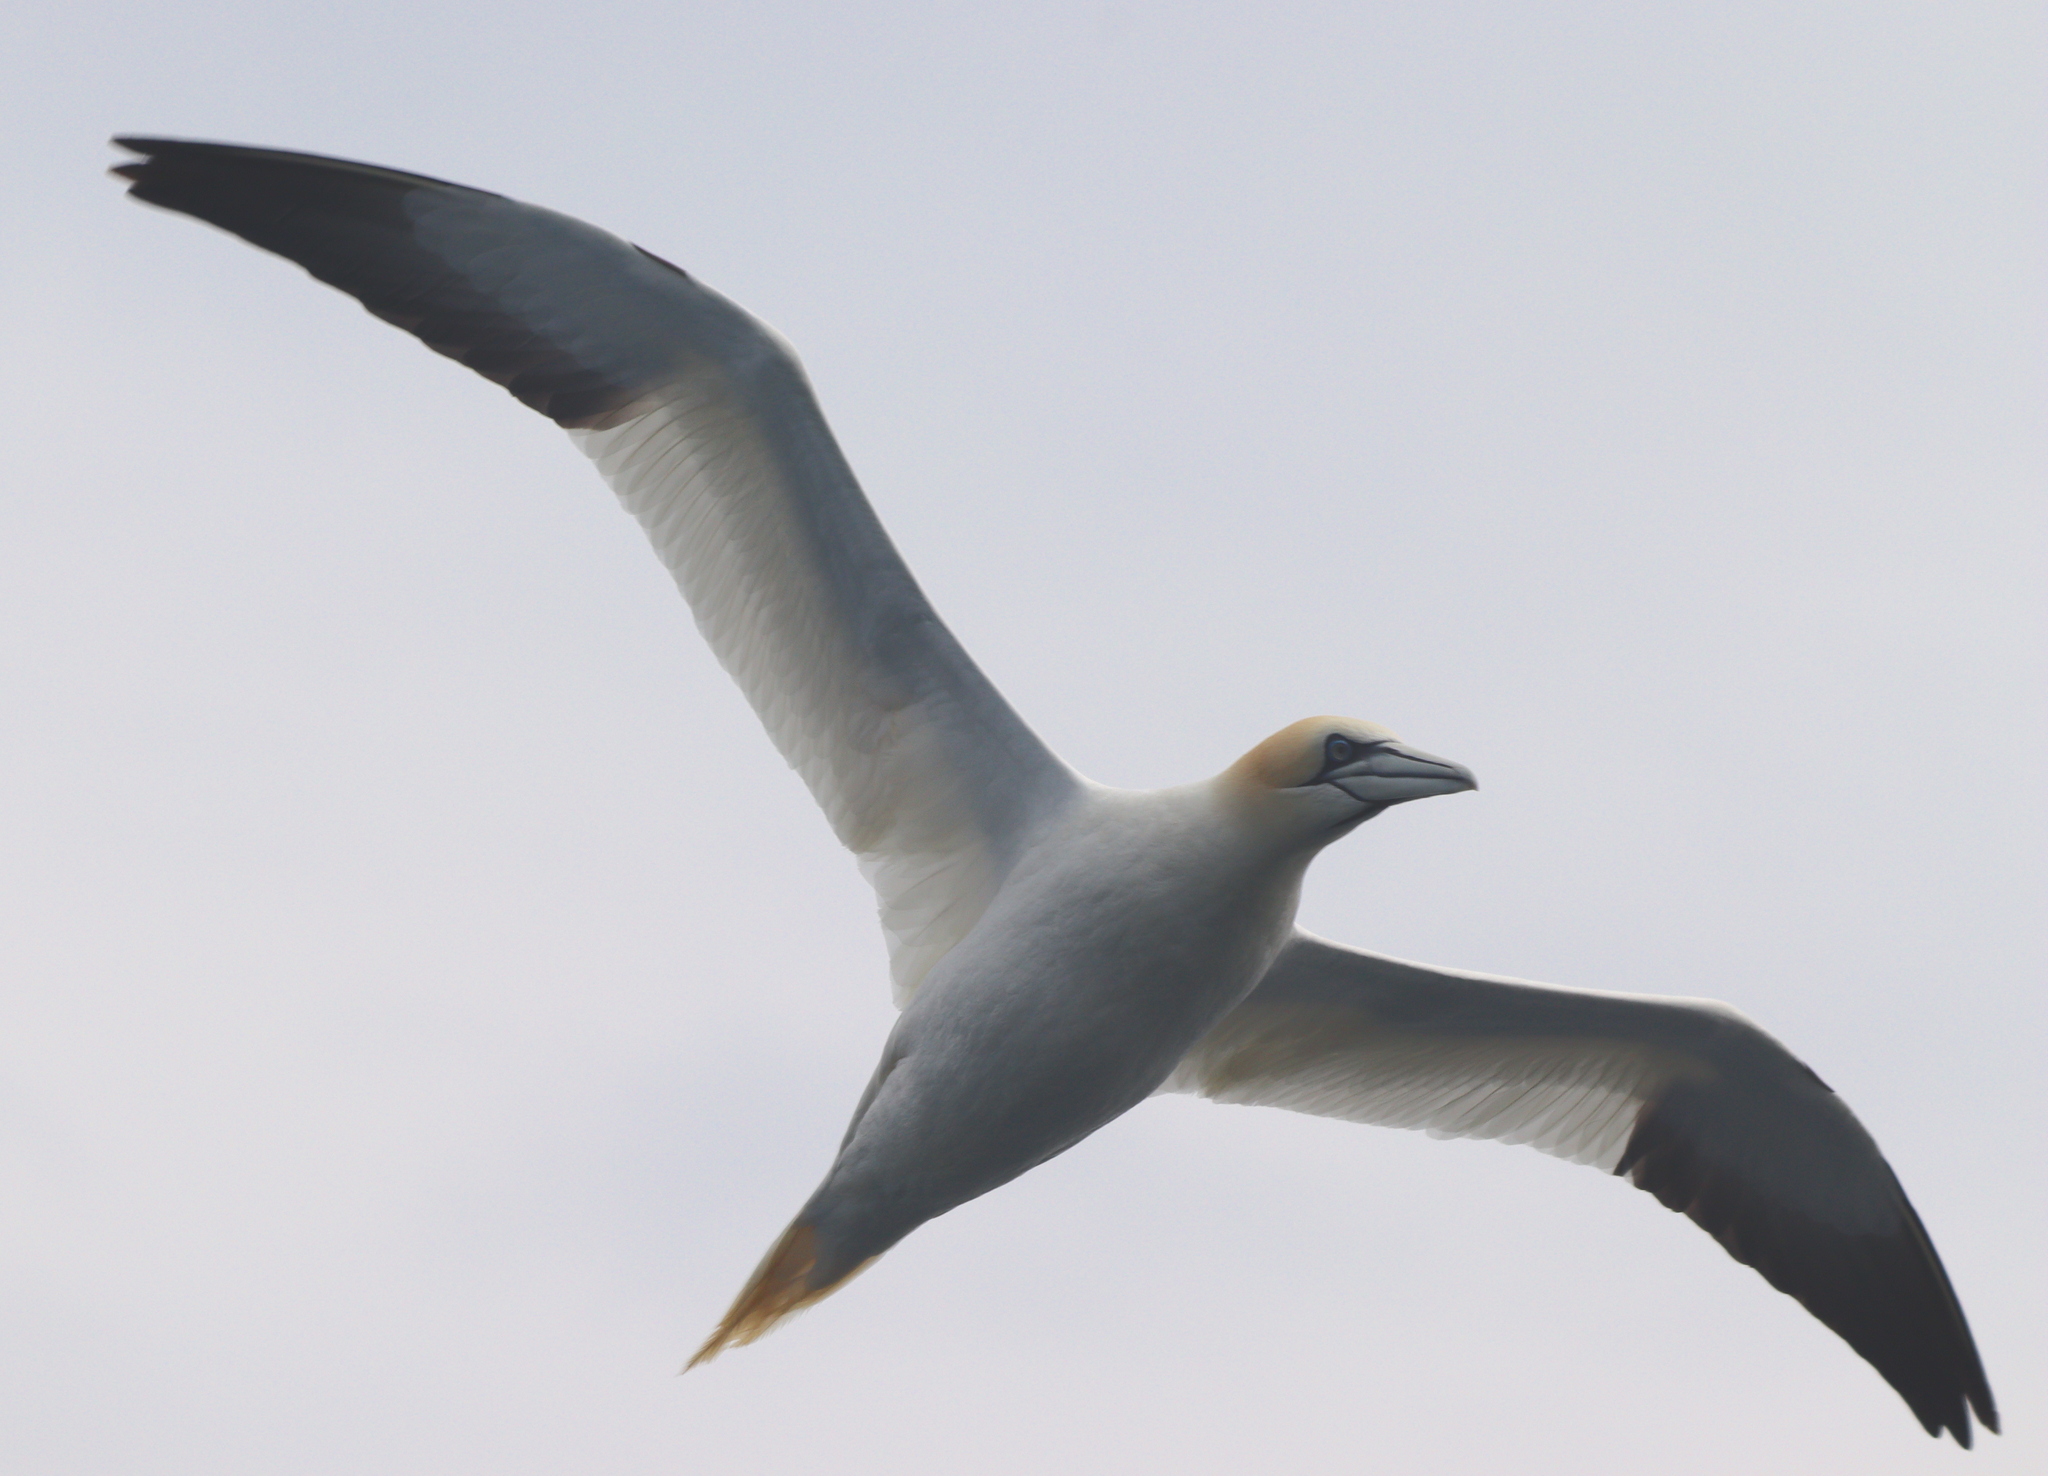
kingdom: Animalia
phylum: Chordata
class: Aves
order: Suliformes
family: Sulidae
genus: Morus
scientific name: Morus bassanus
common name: Northern gannet
